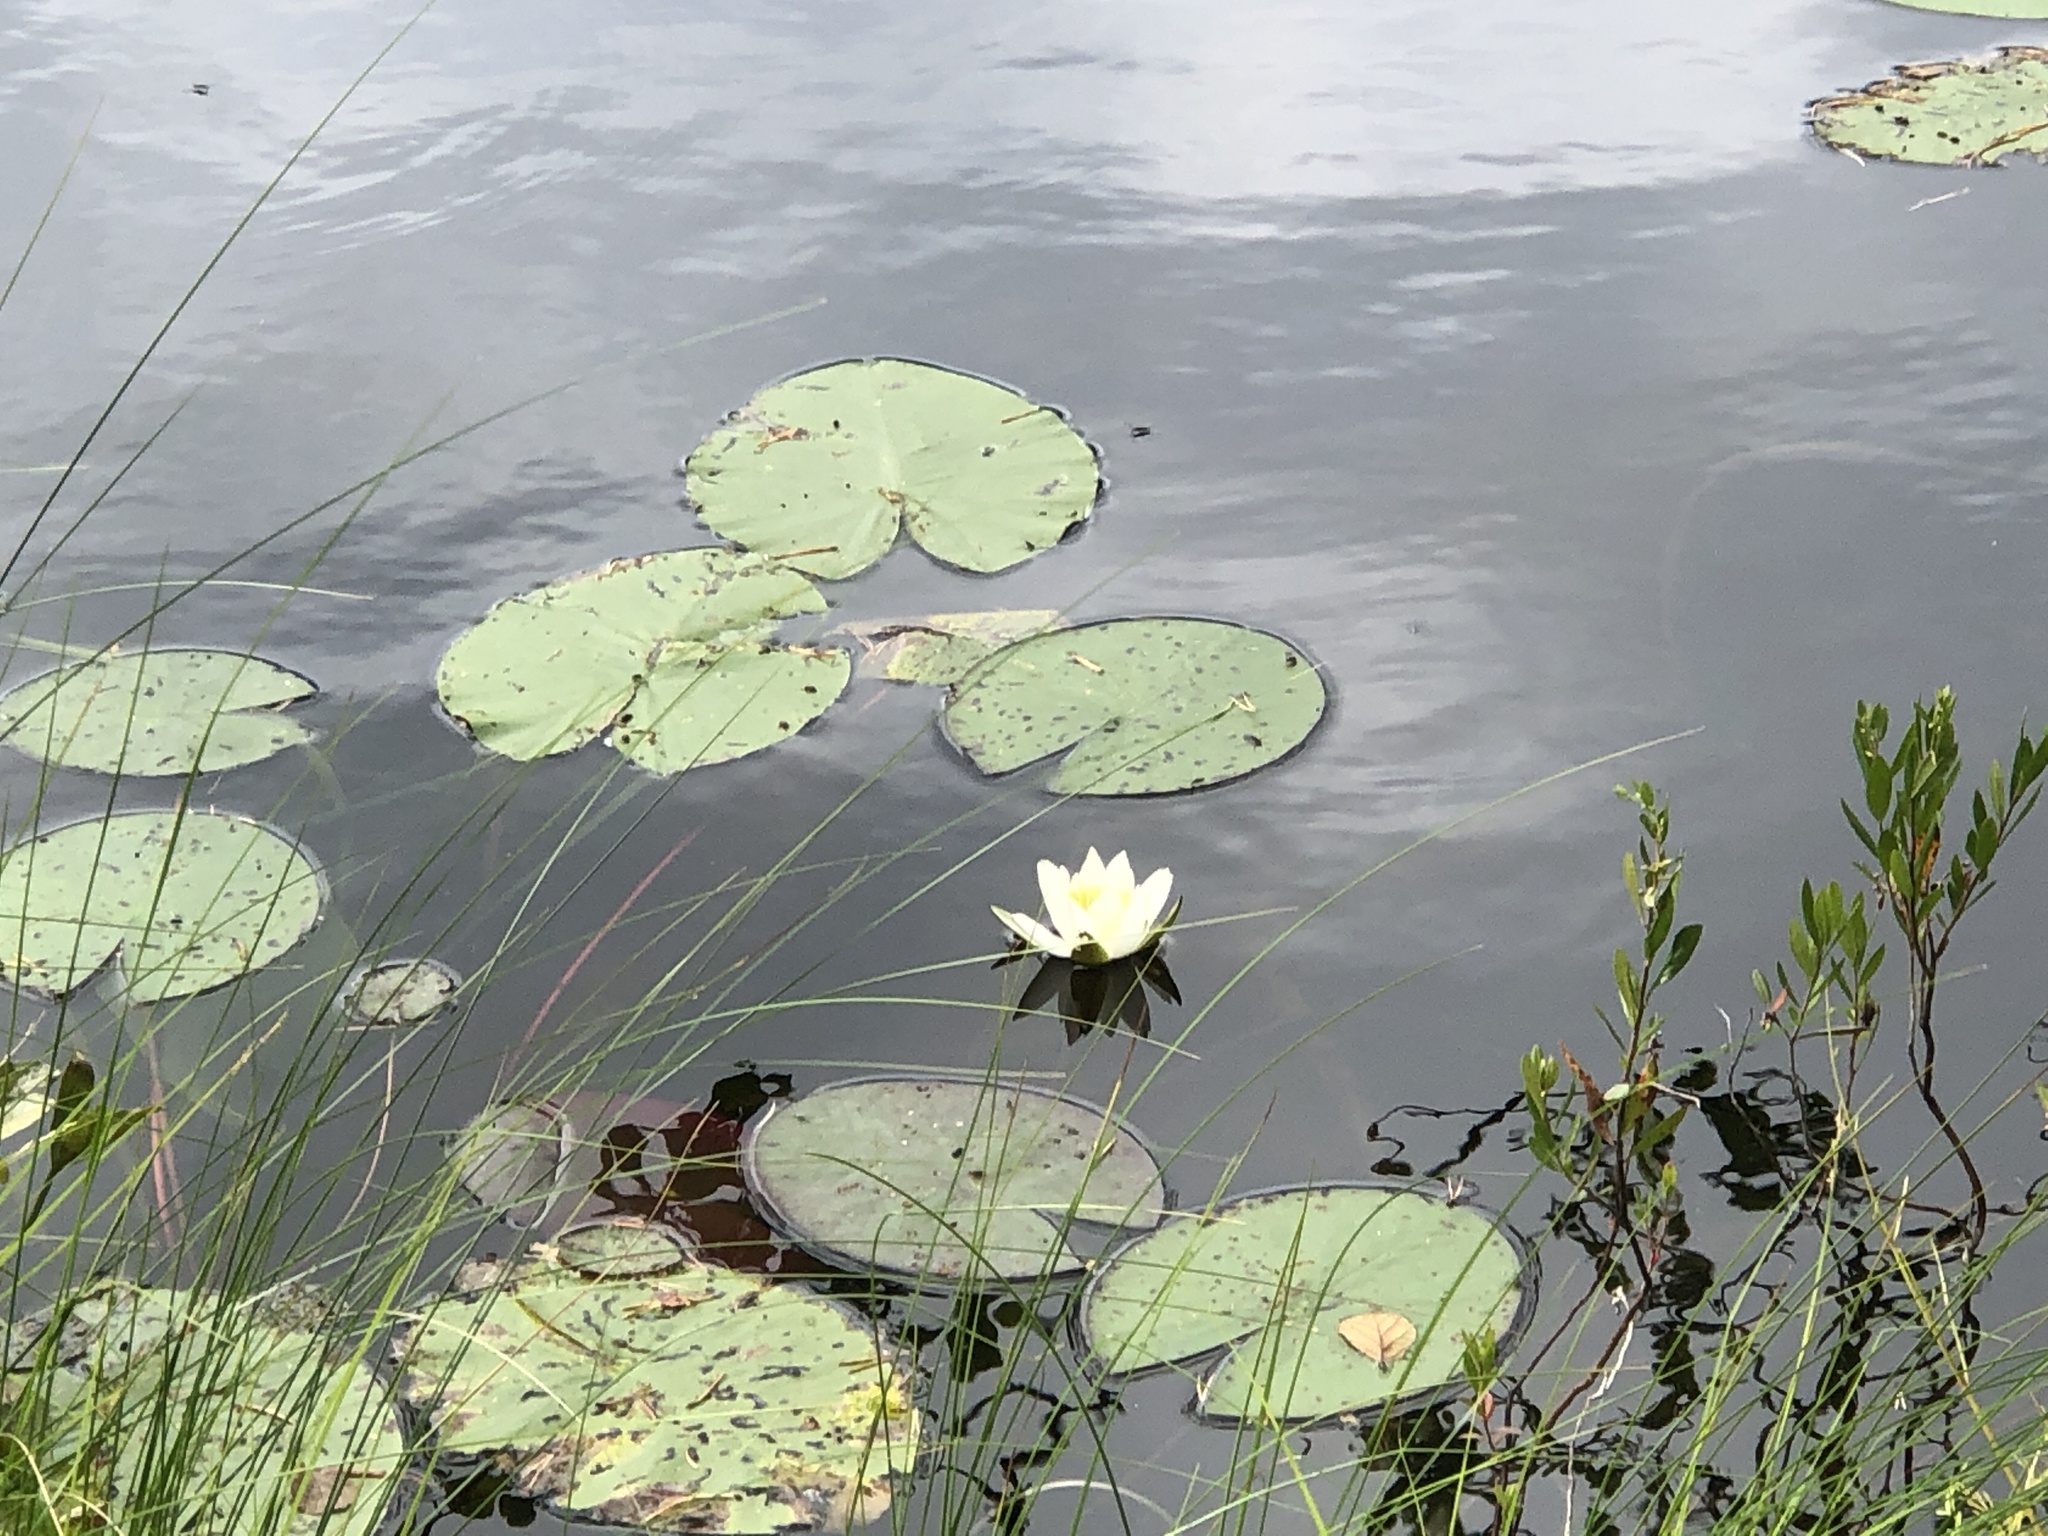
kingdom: Plantae
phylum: Tracheophyta
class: Magnoliopsida
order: Nymphaeales
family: Nymphaeaceae
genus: Nymphaea
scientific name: Nymphaea alba
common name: White water-lily
